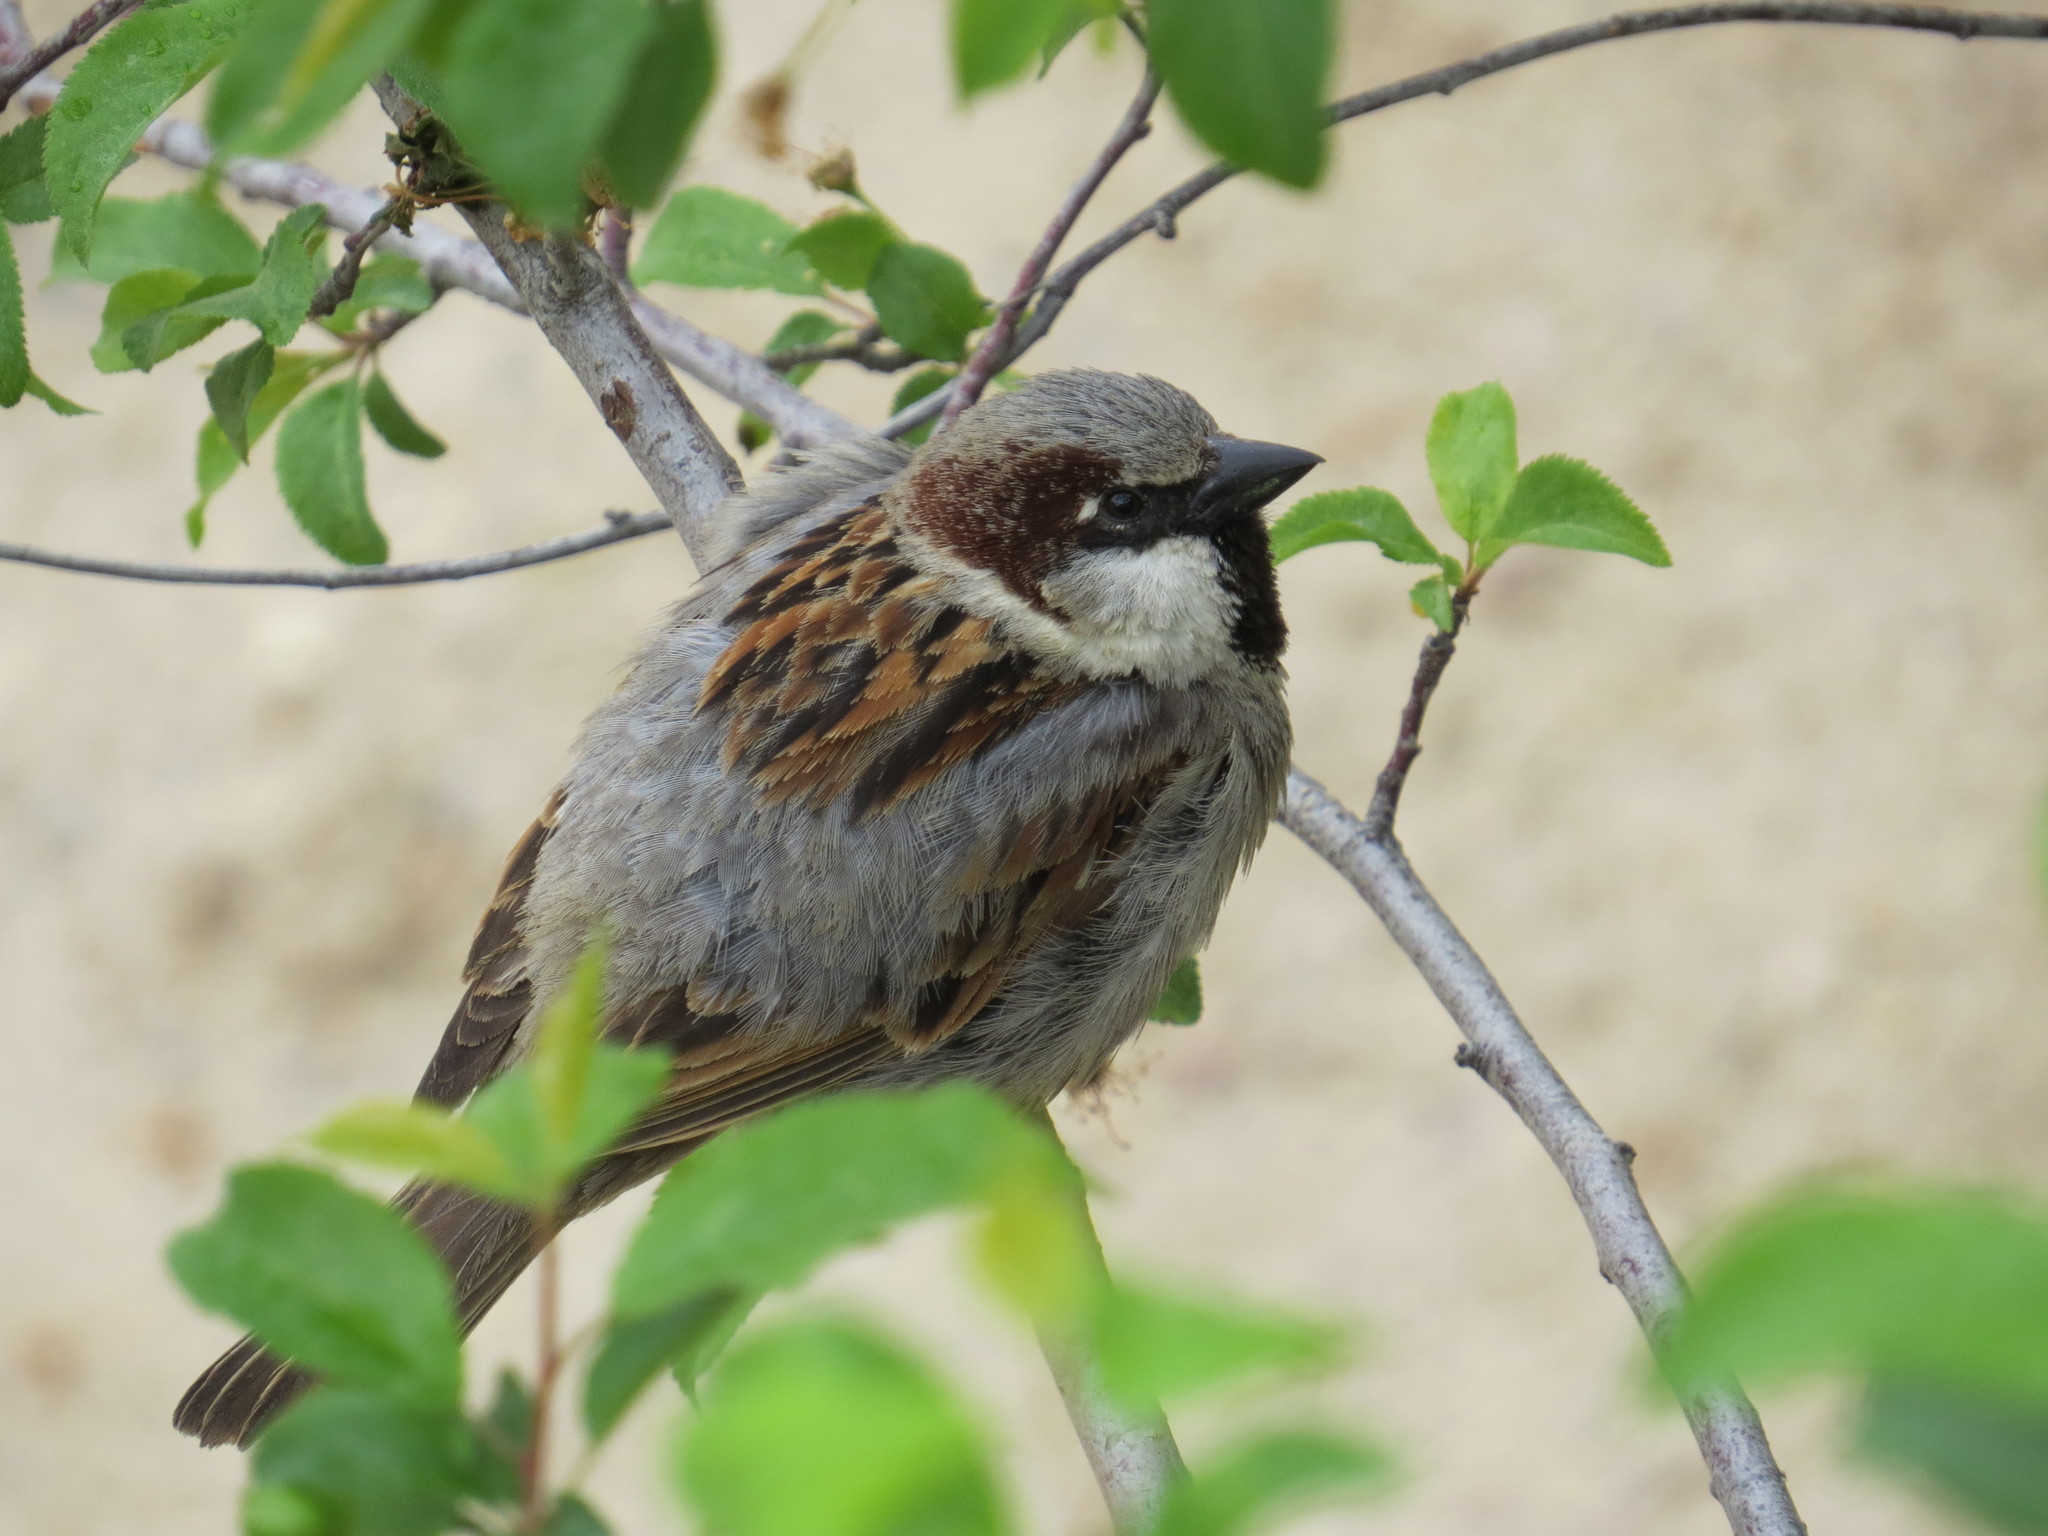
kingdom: Animalia
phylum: Chordata
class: Aves
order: Passeriformes
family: Passeridae
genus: Passer
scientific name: Passer domesticus
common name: House sparrow
